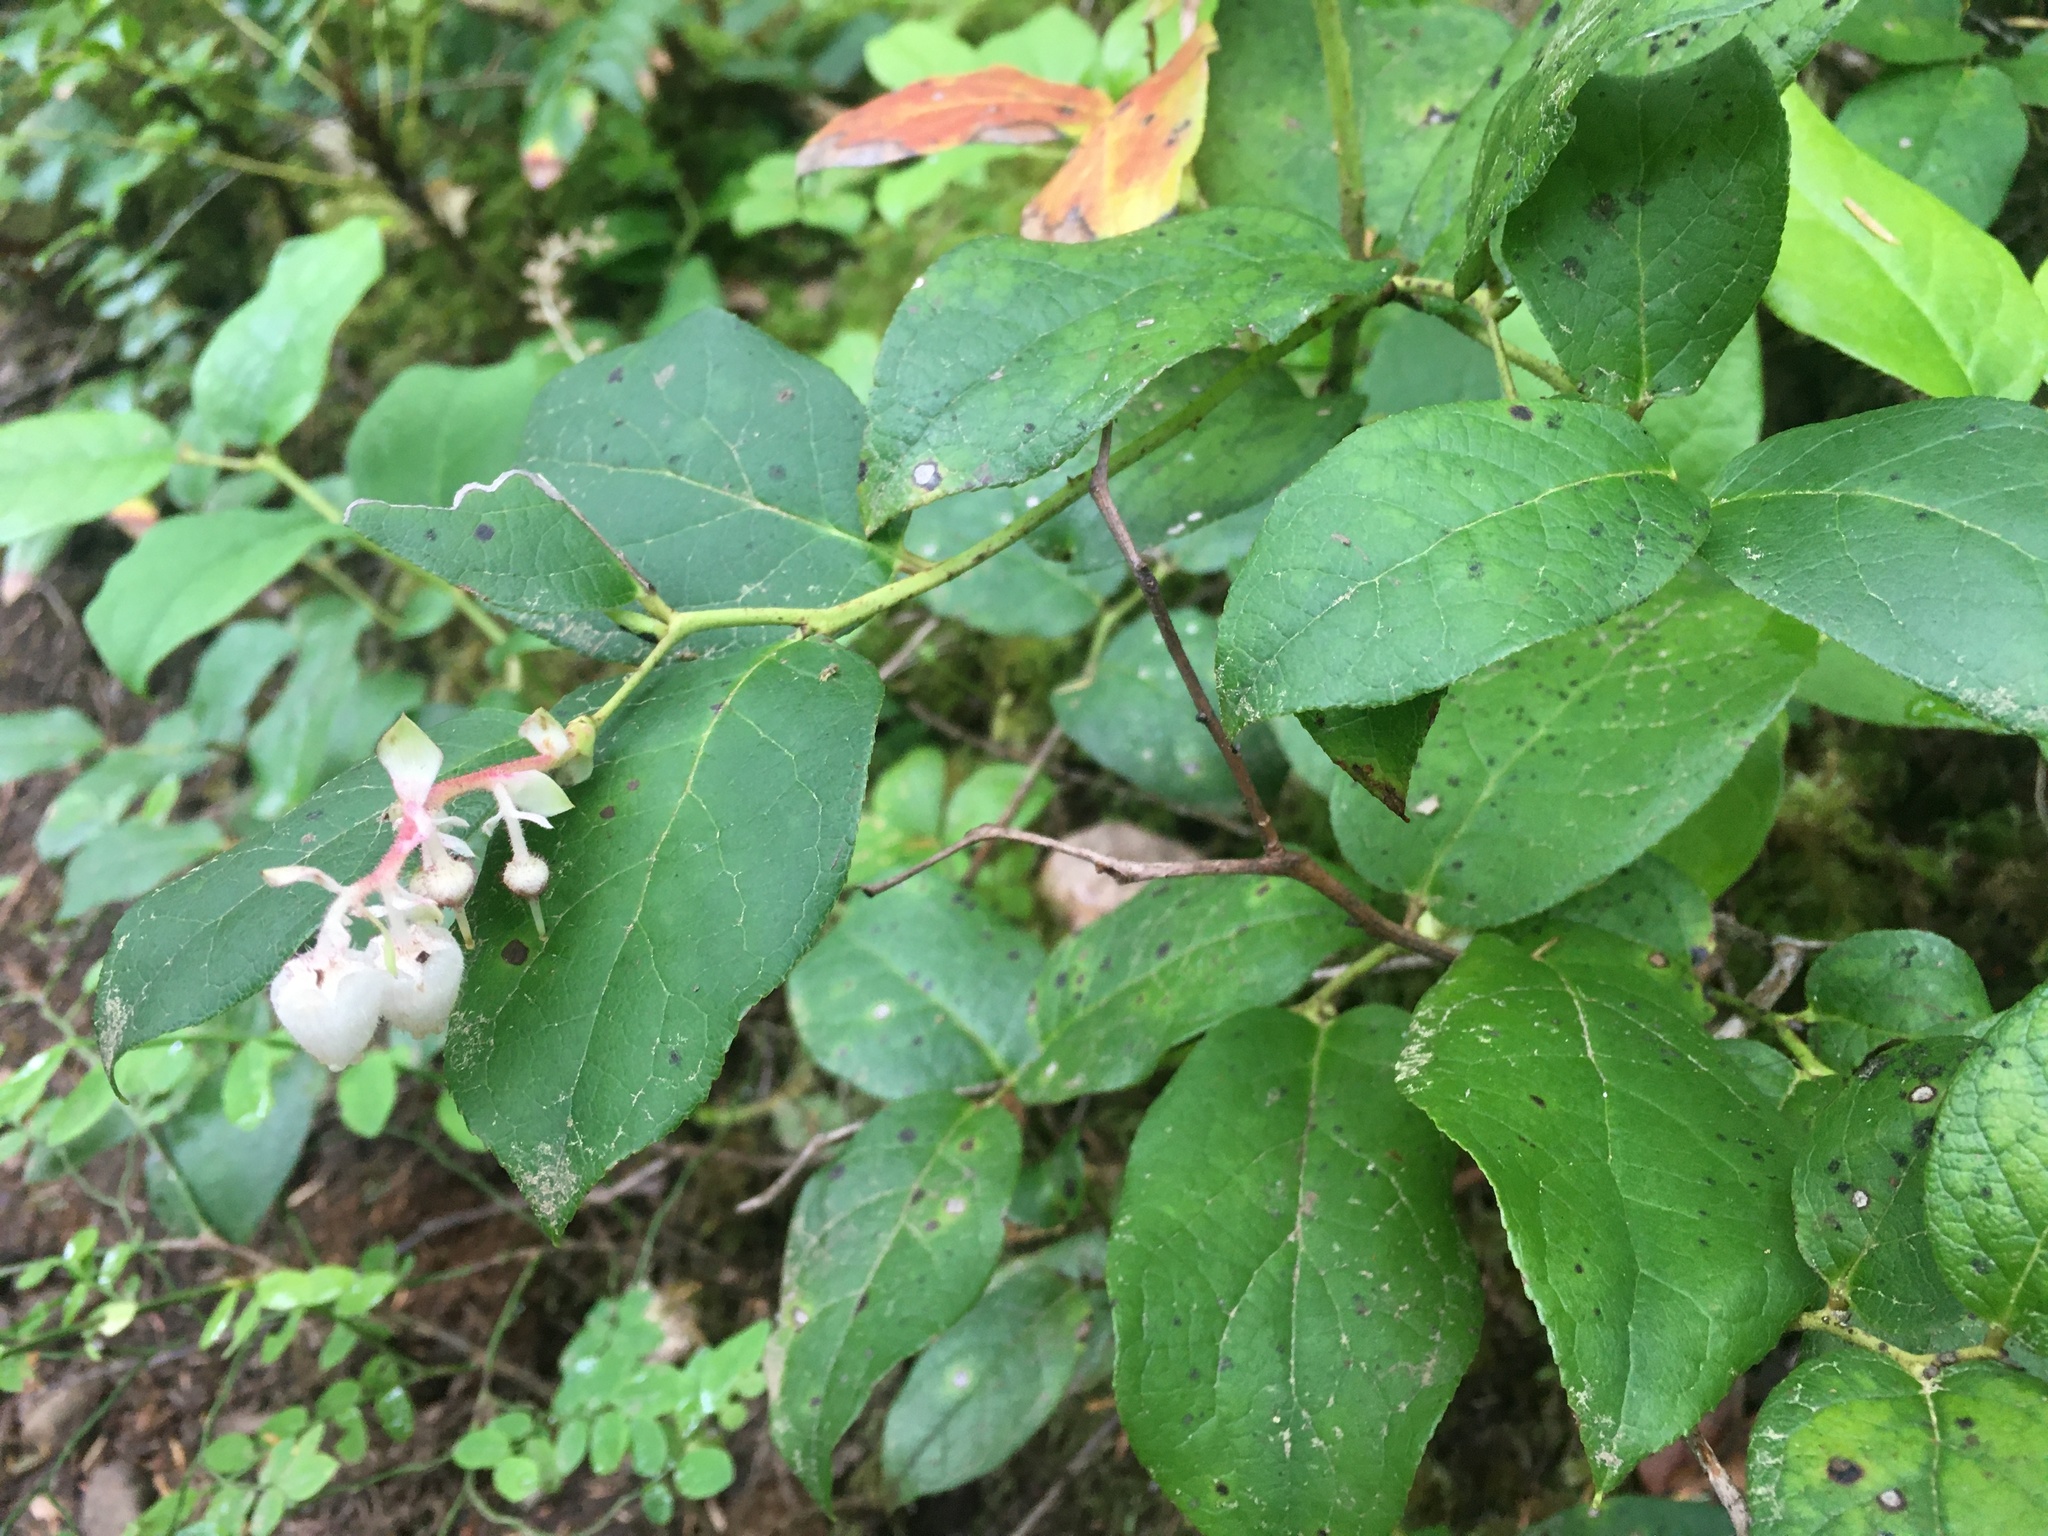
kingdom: Plantae
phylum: Tracheophyta
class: Magnoliopsida
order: Ericales
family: Ericaceae
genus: Gaultheria
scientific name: Gaultheria shallon
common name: Shallon
